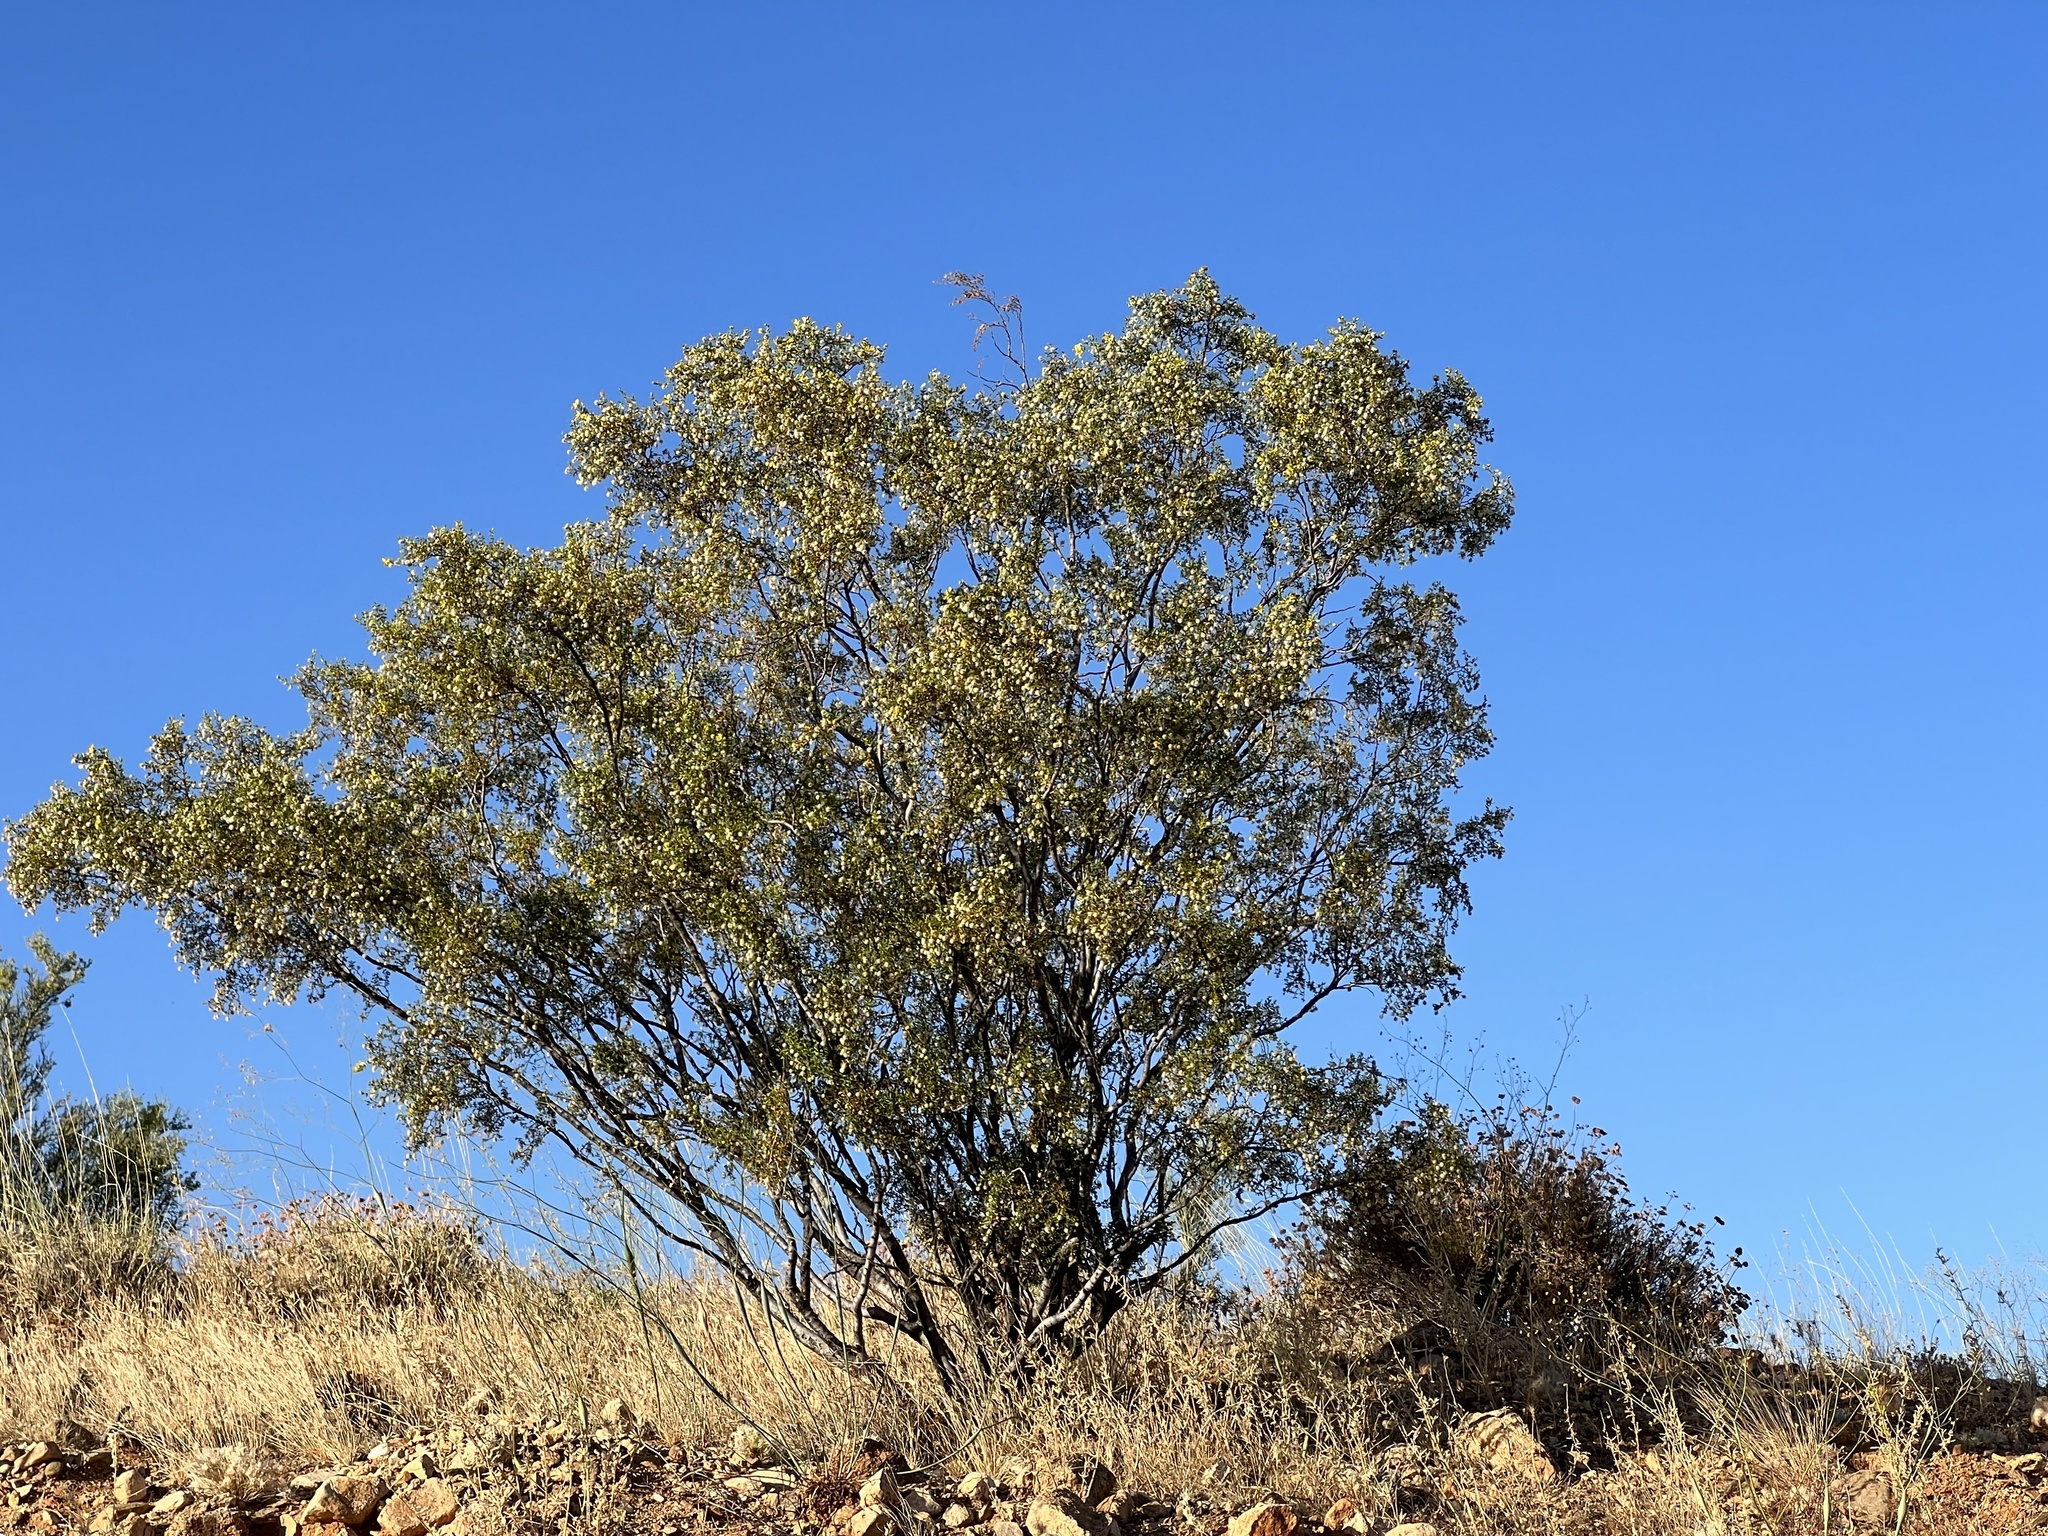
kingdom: Plantae
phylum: Tracheophyta
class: Magnoliopsida
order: Zygophyllales
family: Zygophyllaceae
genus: Larrea
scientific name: Larrea tridentata
